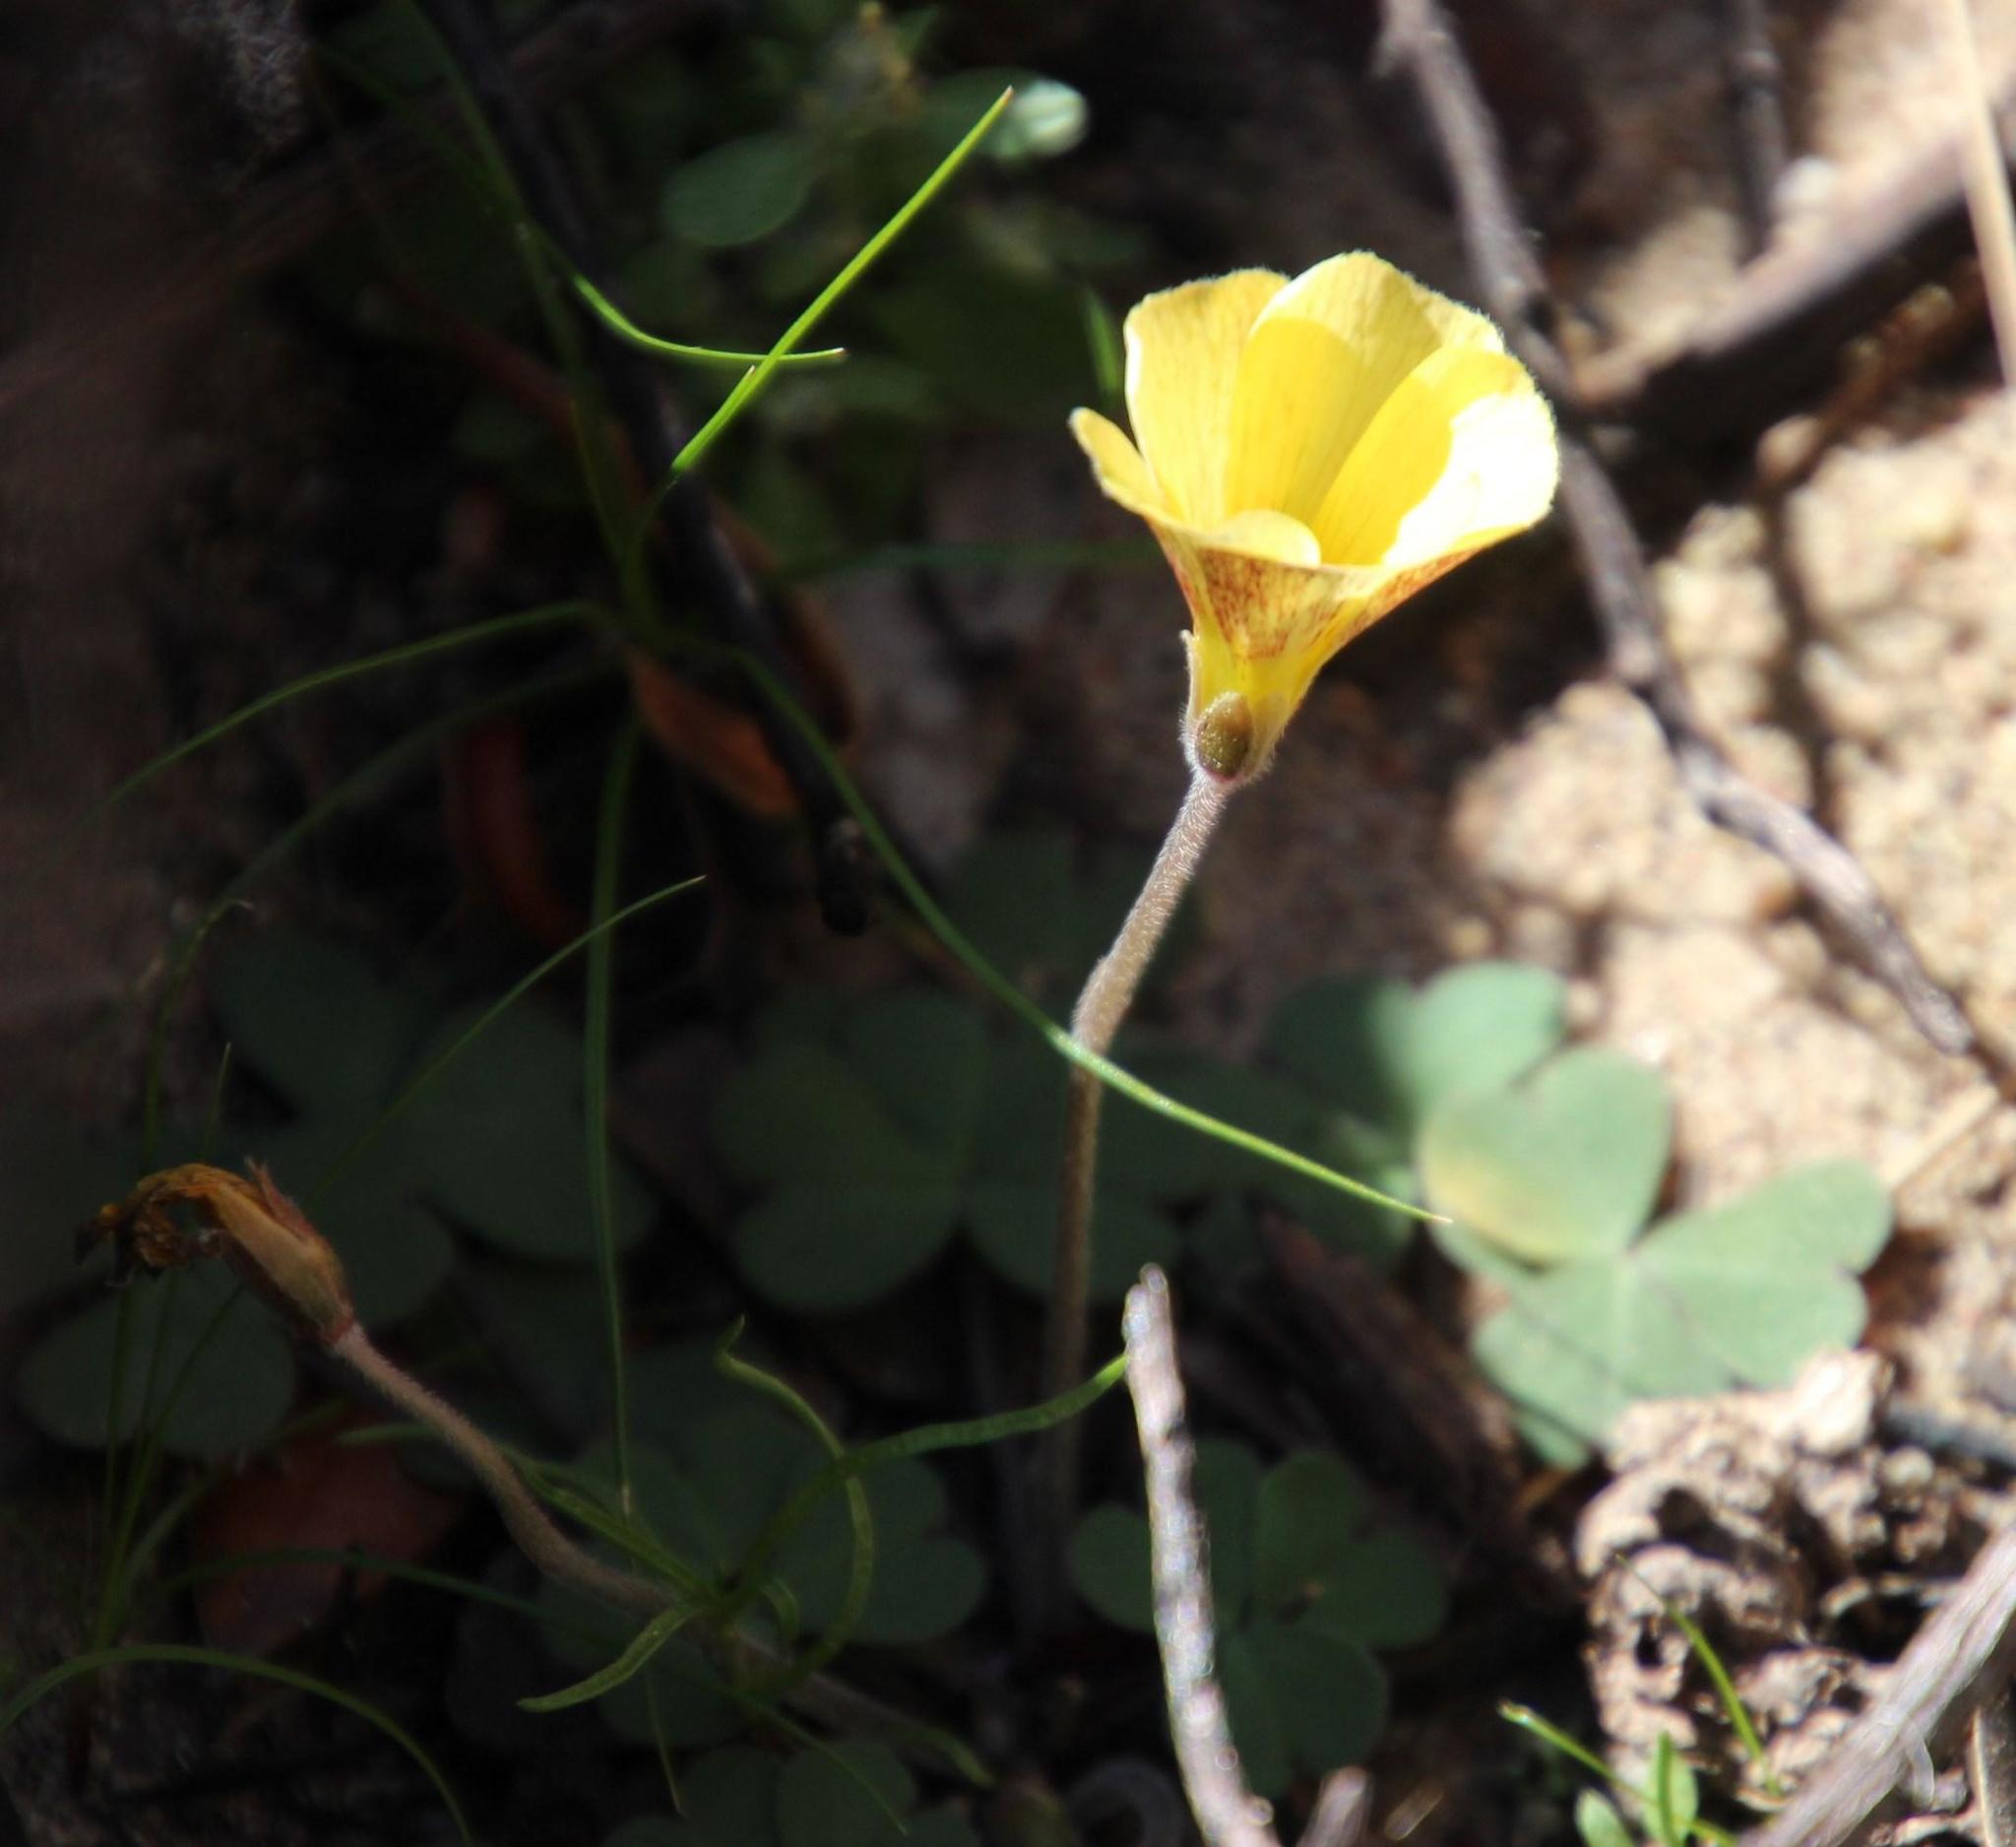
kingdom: Plantae
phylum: Tracheophyta
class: Magnoliopsida
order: Oxalidales
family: Oxalidaceae
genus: Oxalis
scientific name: Oxalis obtusa
